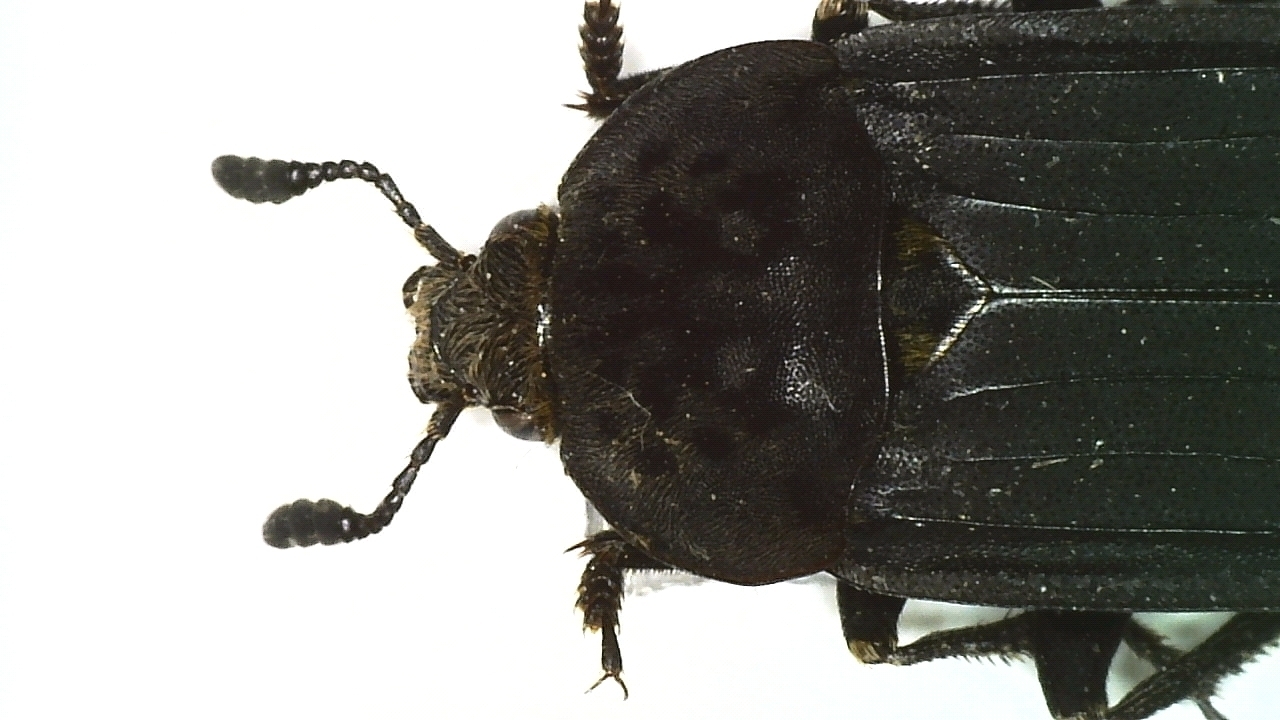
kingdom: Animalia
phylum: Arthropoda
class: Insecta
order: Coleoptera
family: Staphylinidae
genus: Thanatophilus
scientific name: Thanatophilus sinuatus
